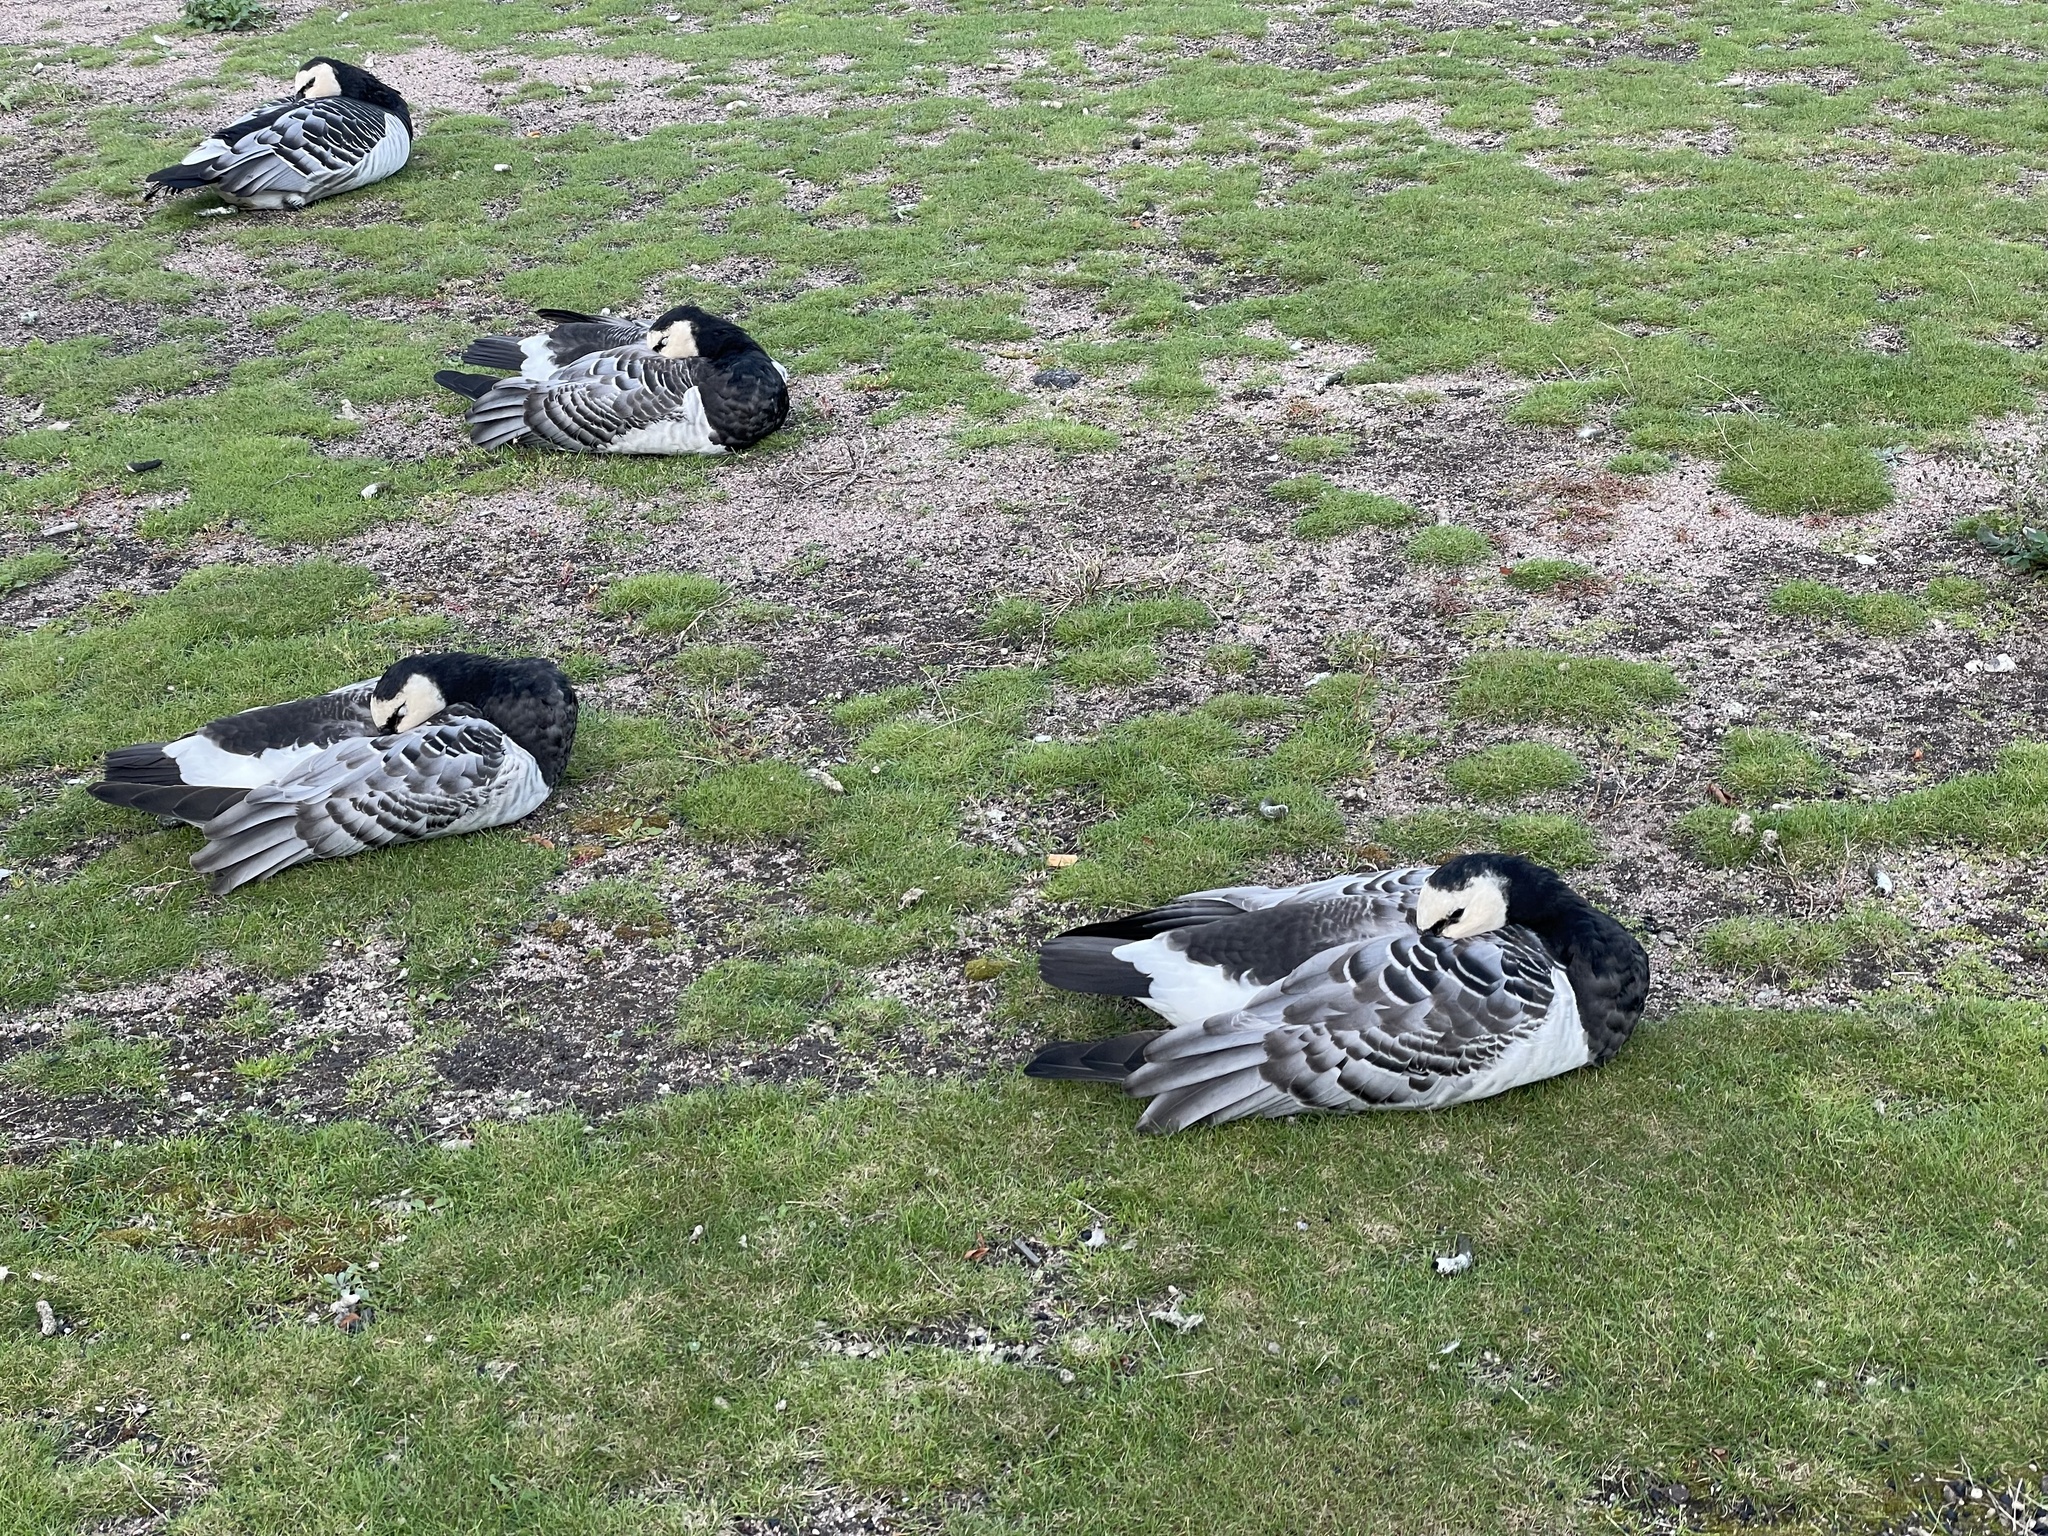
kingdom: Animalia
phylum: Chordata
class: Aves
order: Anseriformes
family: Anatidae
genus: Branta
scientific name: Branta leucopsis
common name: Barnacle goose
